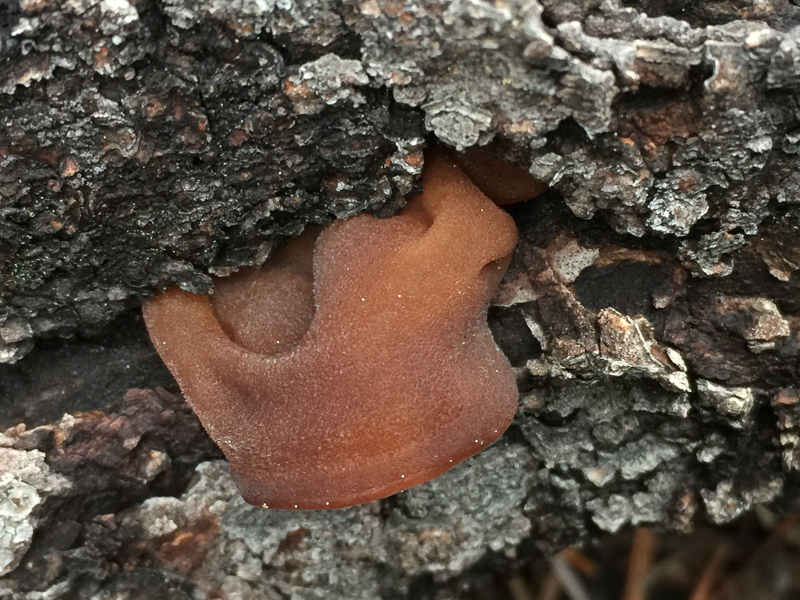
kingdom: Fungi
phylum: Basidiomycota
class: Agaricomycetes
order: Auriculariales
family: Auriculariaceae
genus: Auricularia
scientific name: Auricularia americana
